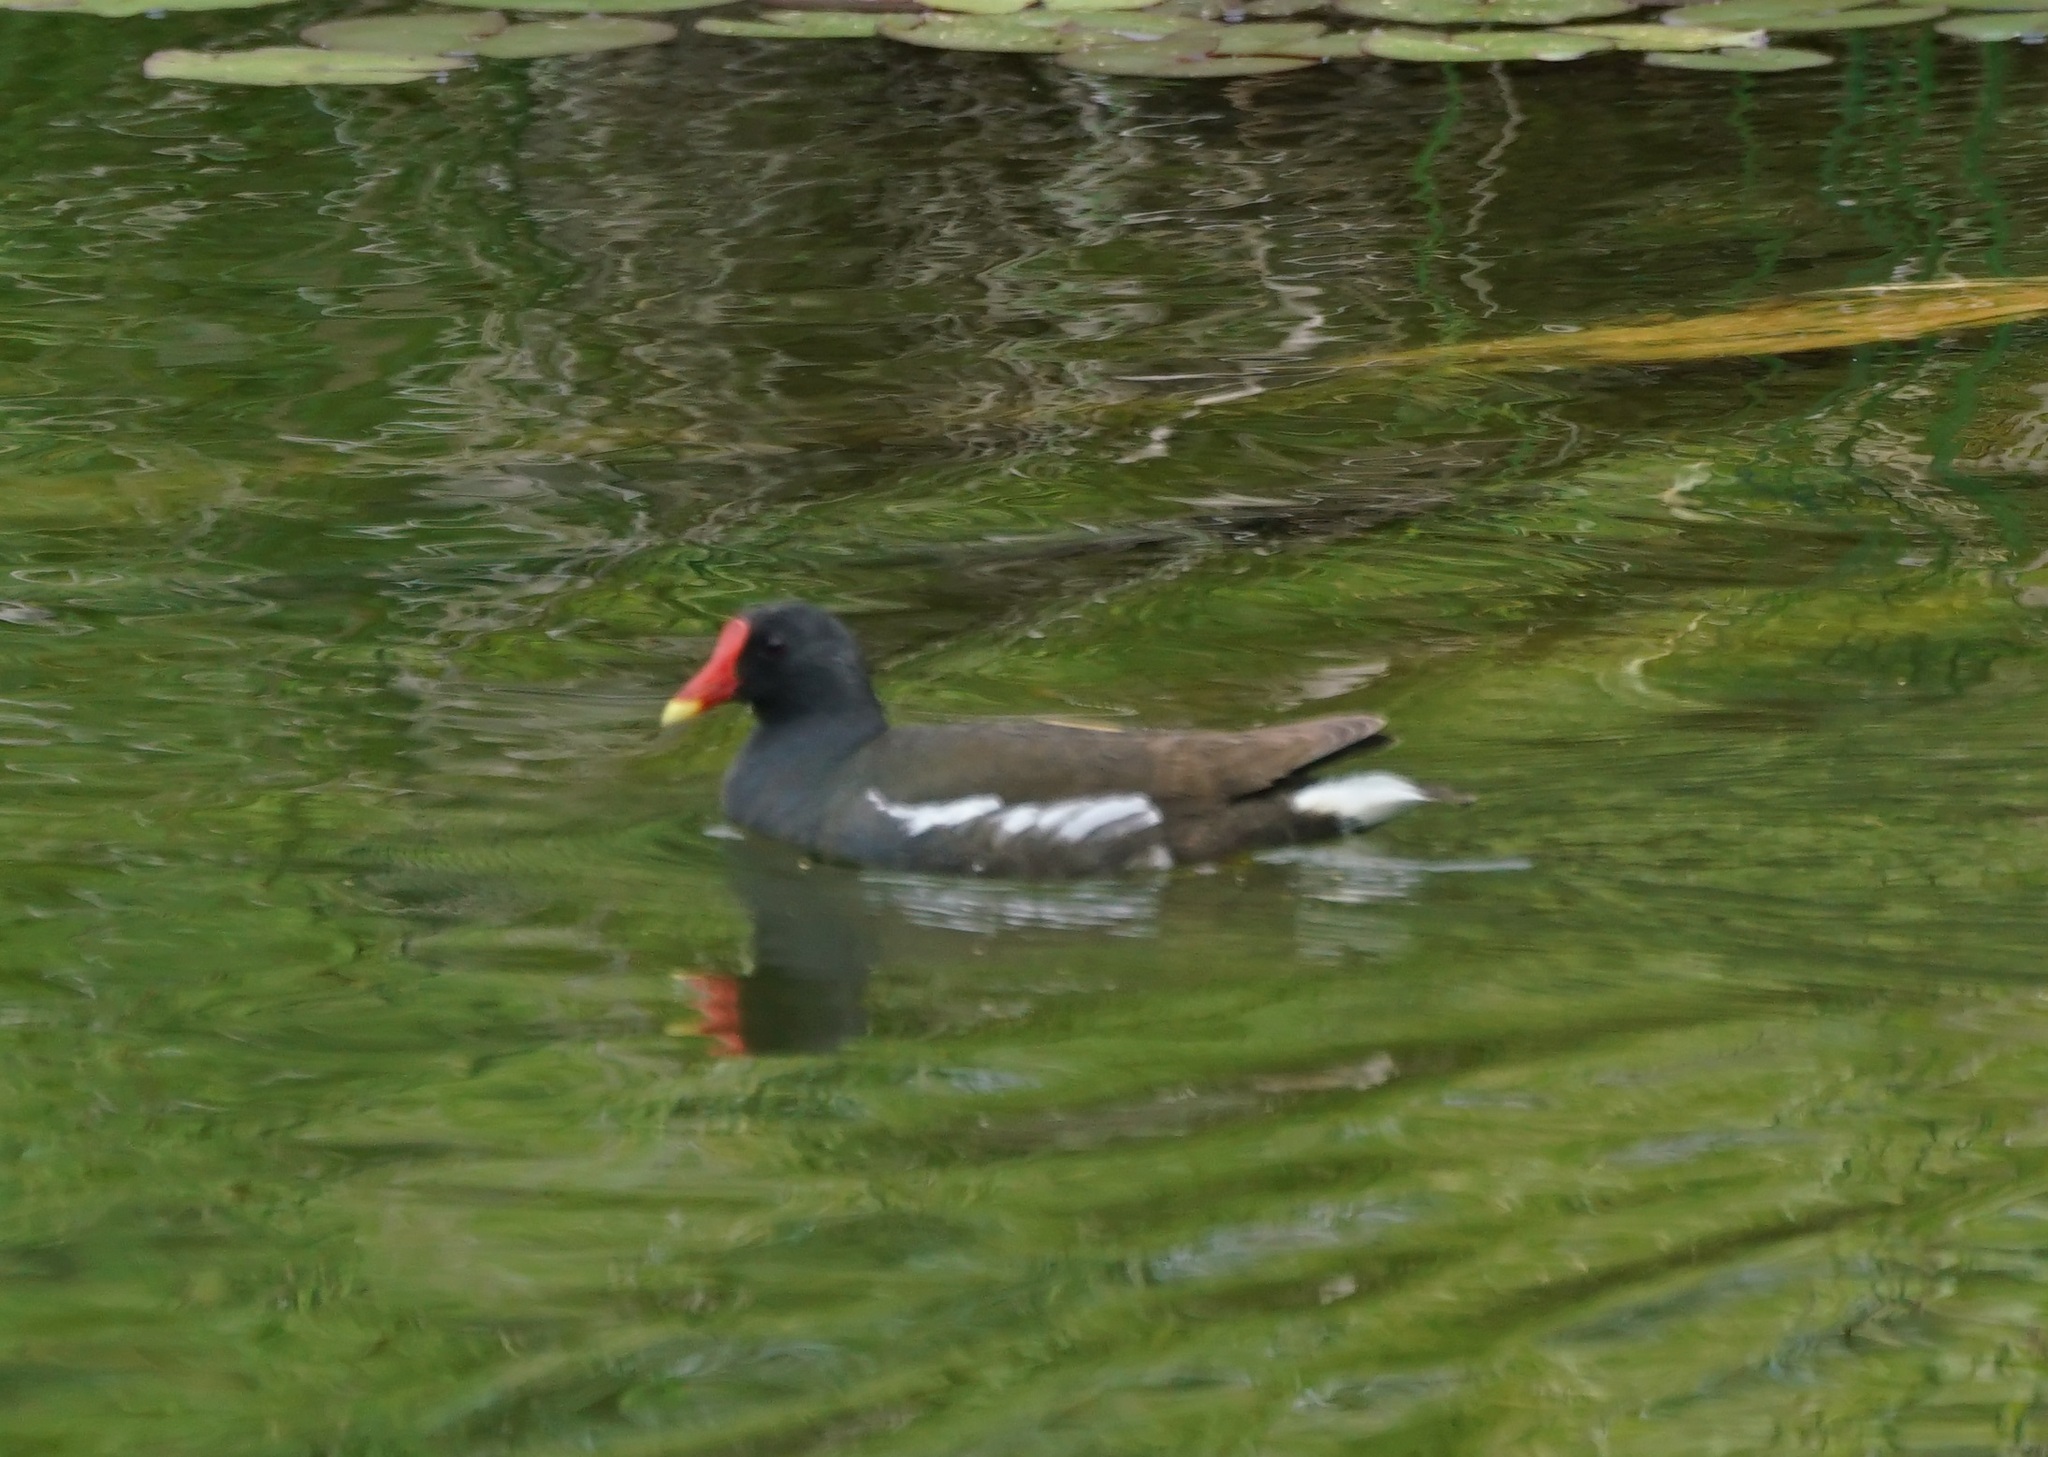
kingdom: Animalia
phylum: Chordata
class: Aves
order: Gruiformes
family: Rallidae
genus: Gallinula
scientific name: Gallinula chloropus
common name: Common moorhen
